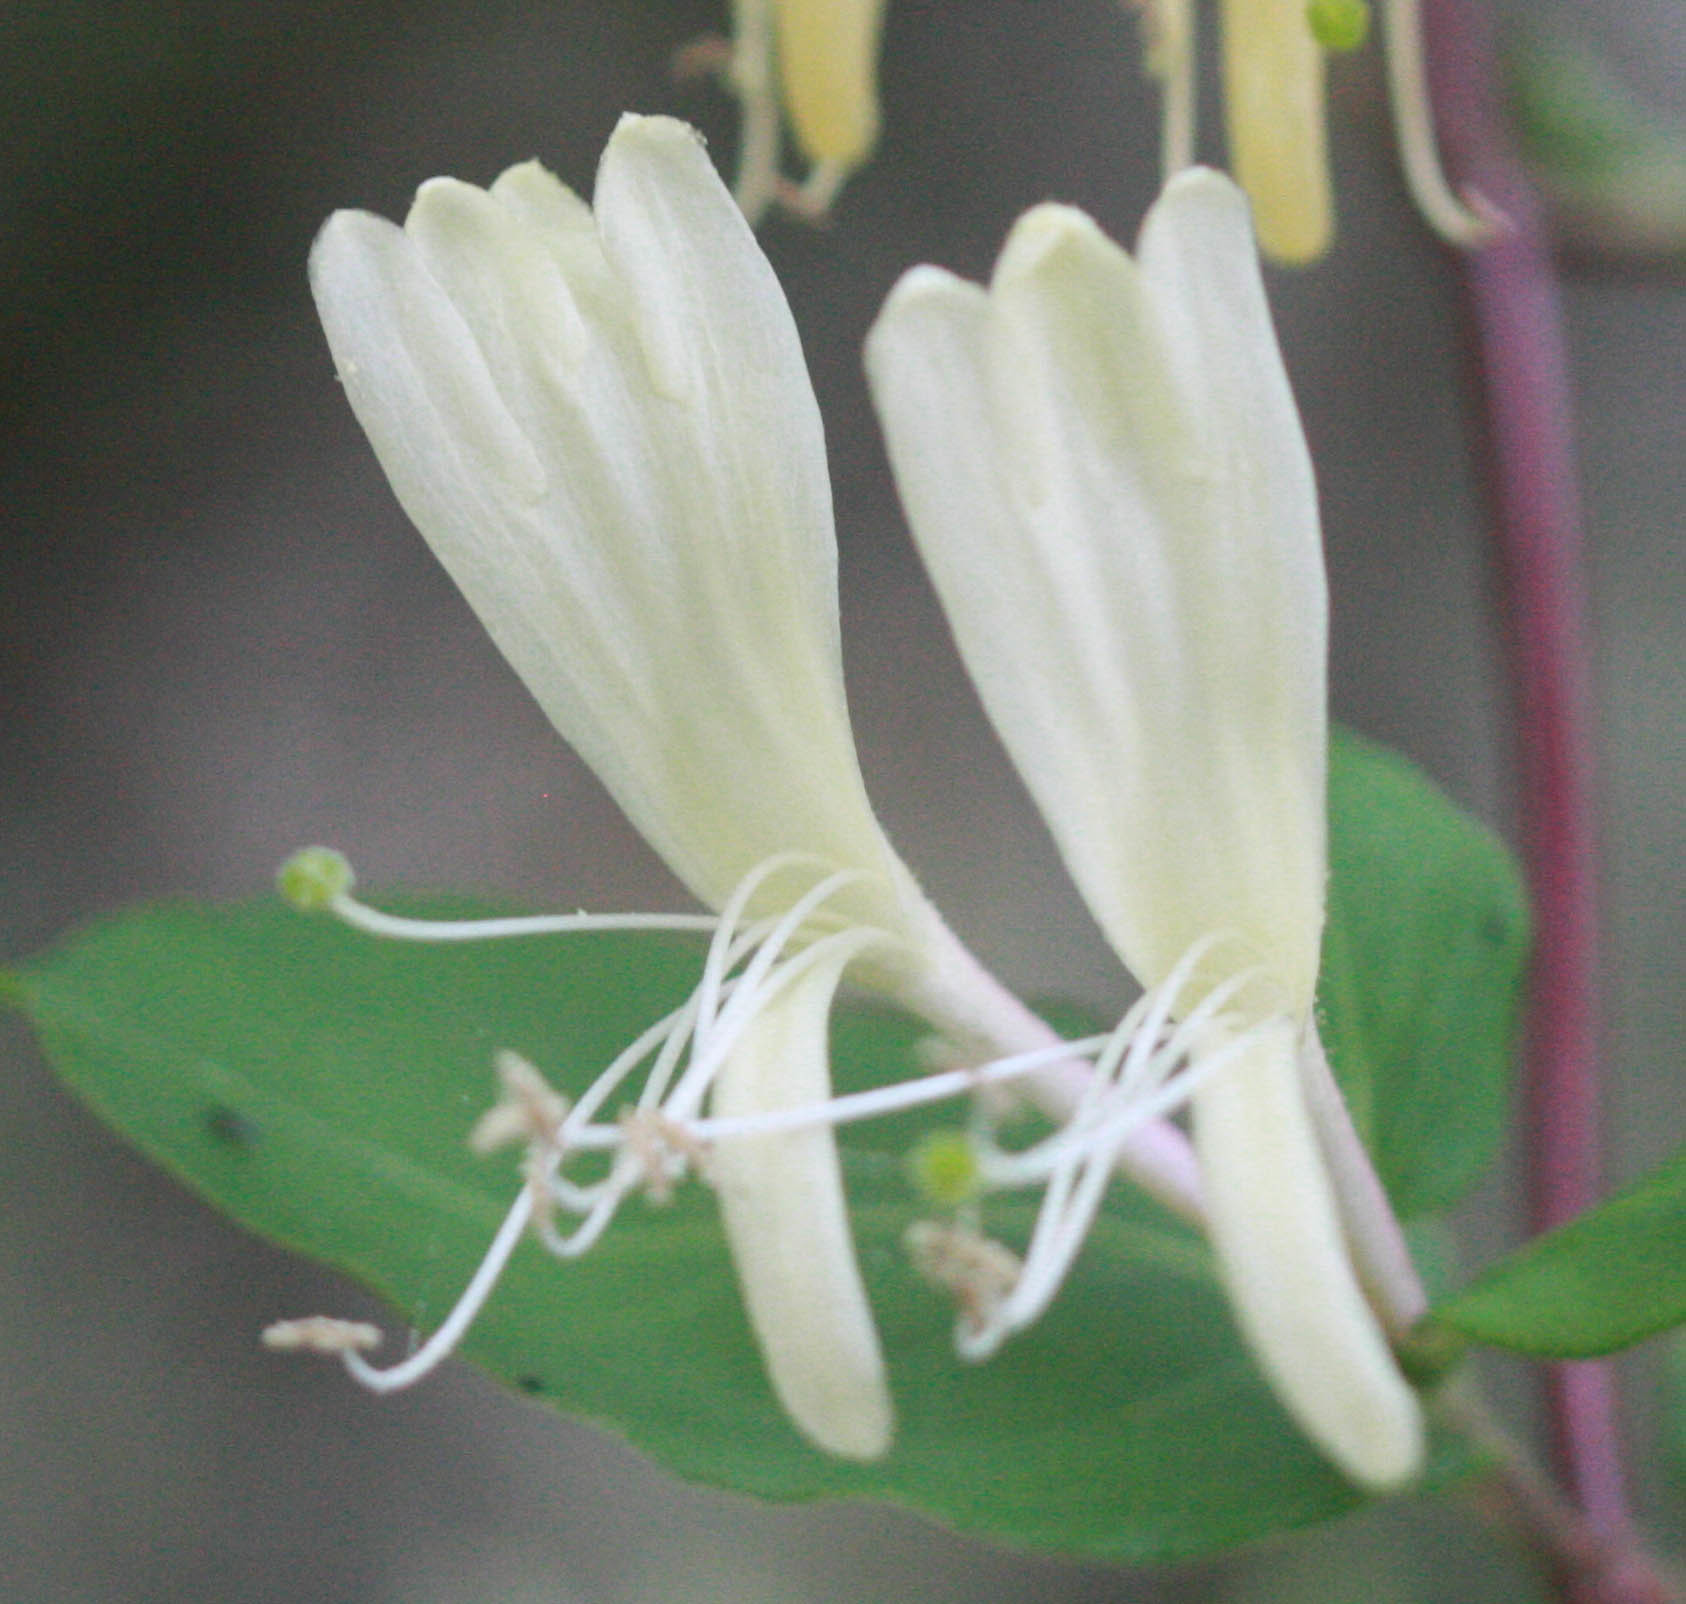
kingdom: Plantae
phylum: Tracheophyta
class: Magnoliopsida
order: Dipsacales
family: Caprifoliaceae
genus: Lonicera
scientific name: Lonicera japonica
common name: Japanese honeysuckle
